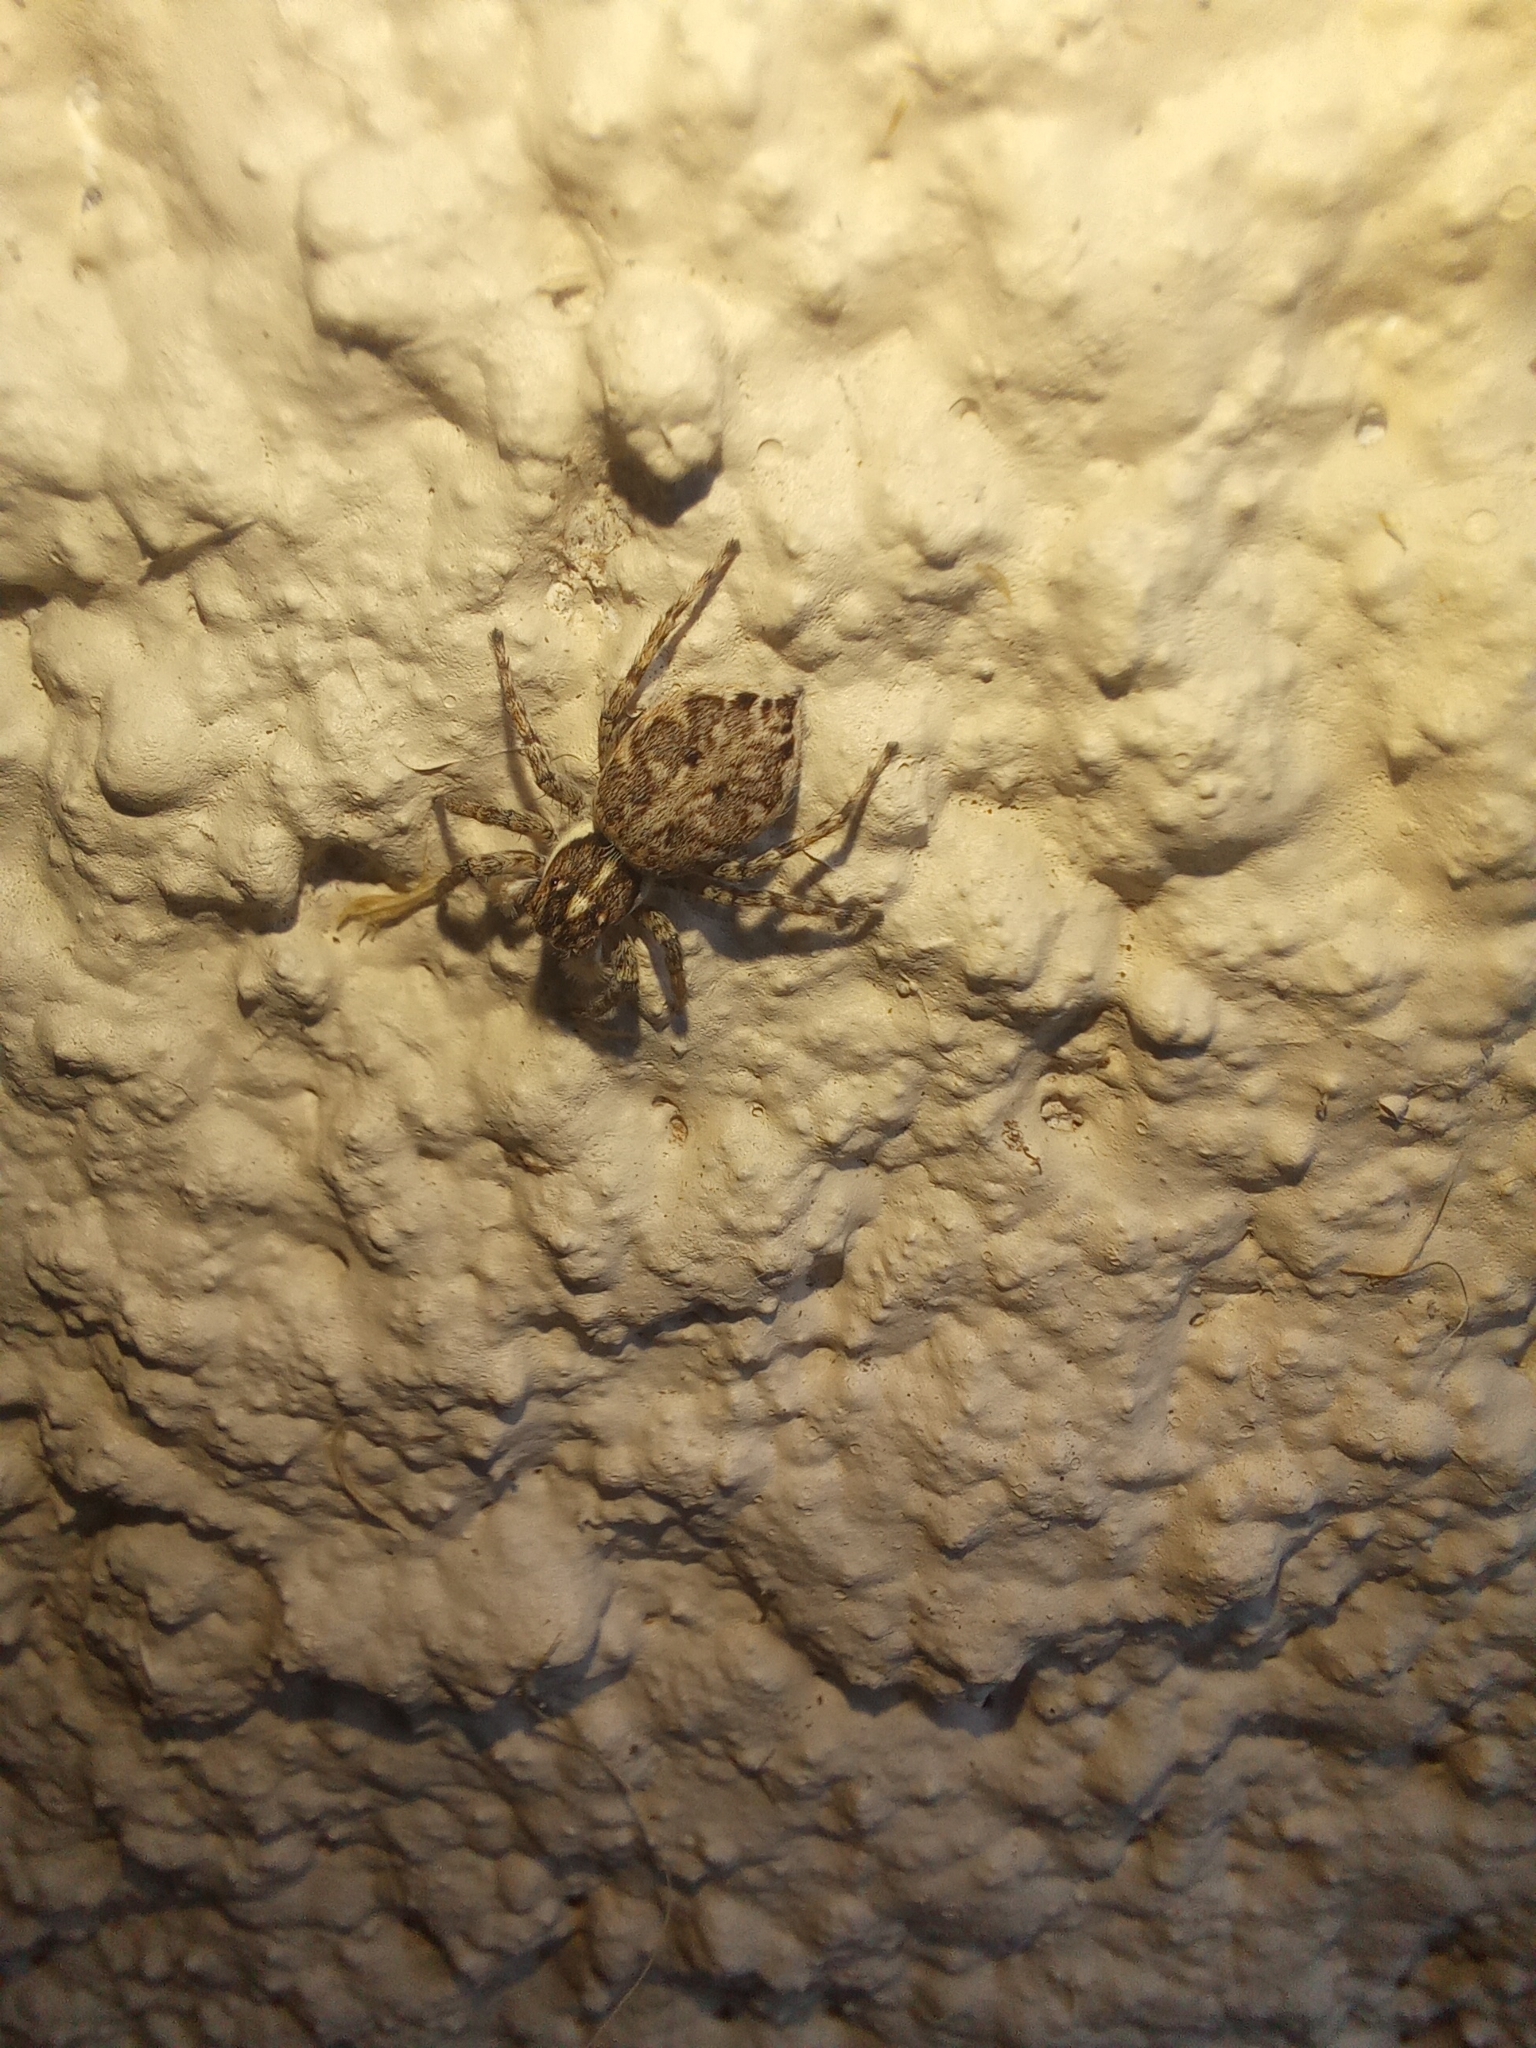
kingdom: Animalia
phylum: Arthropoda
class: Arachnida
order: Araneae
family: Salticidae
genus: Menemerus
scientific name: Menemerus semilimbatus
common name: Jumping spider
